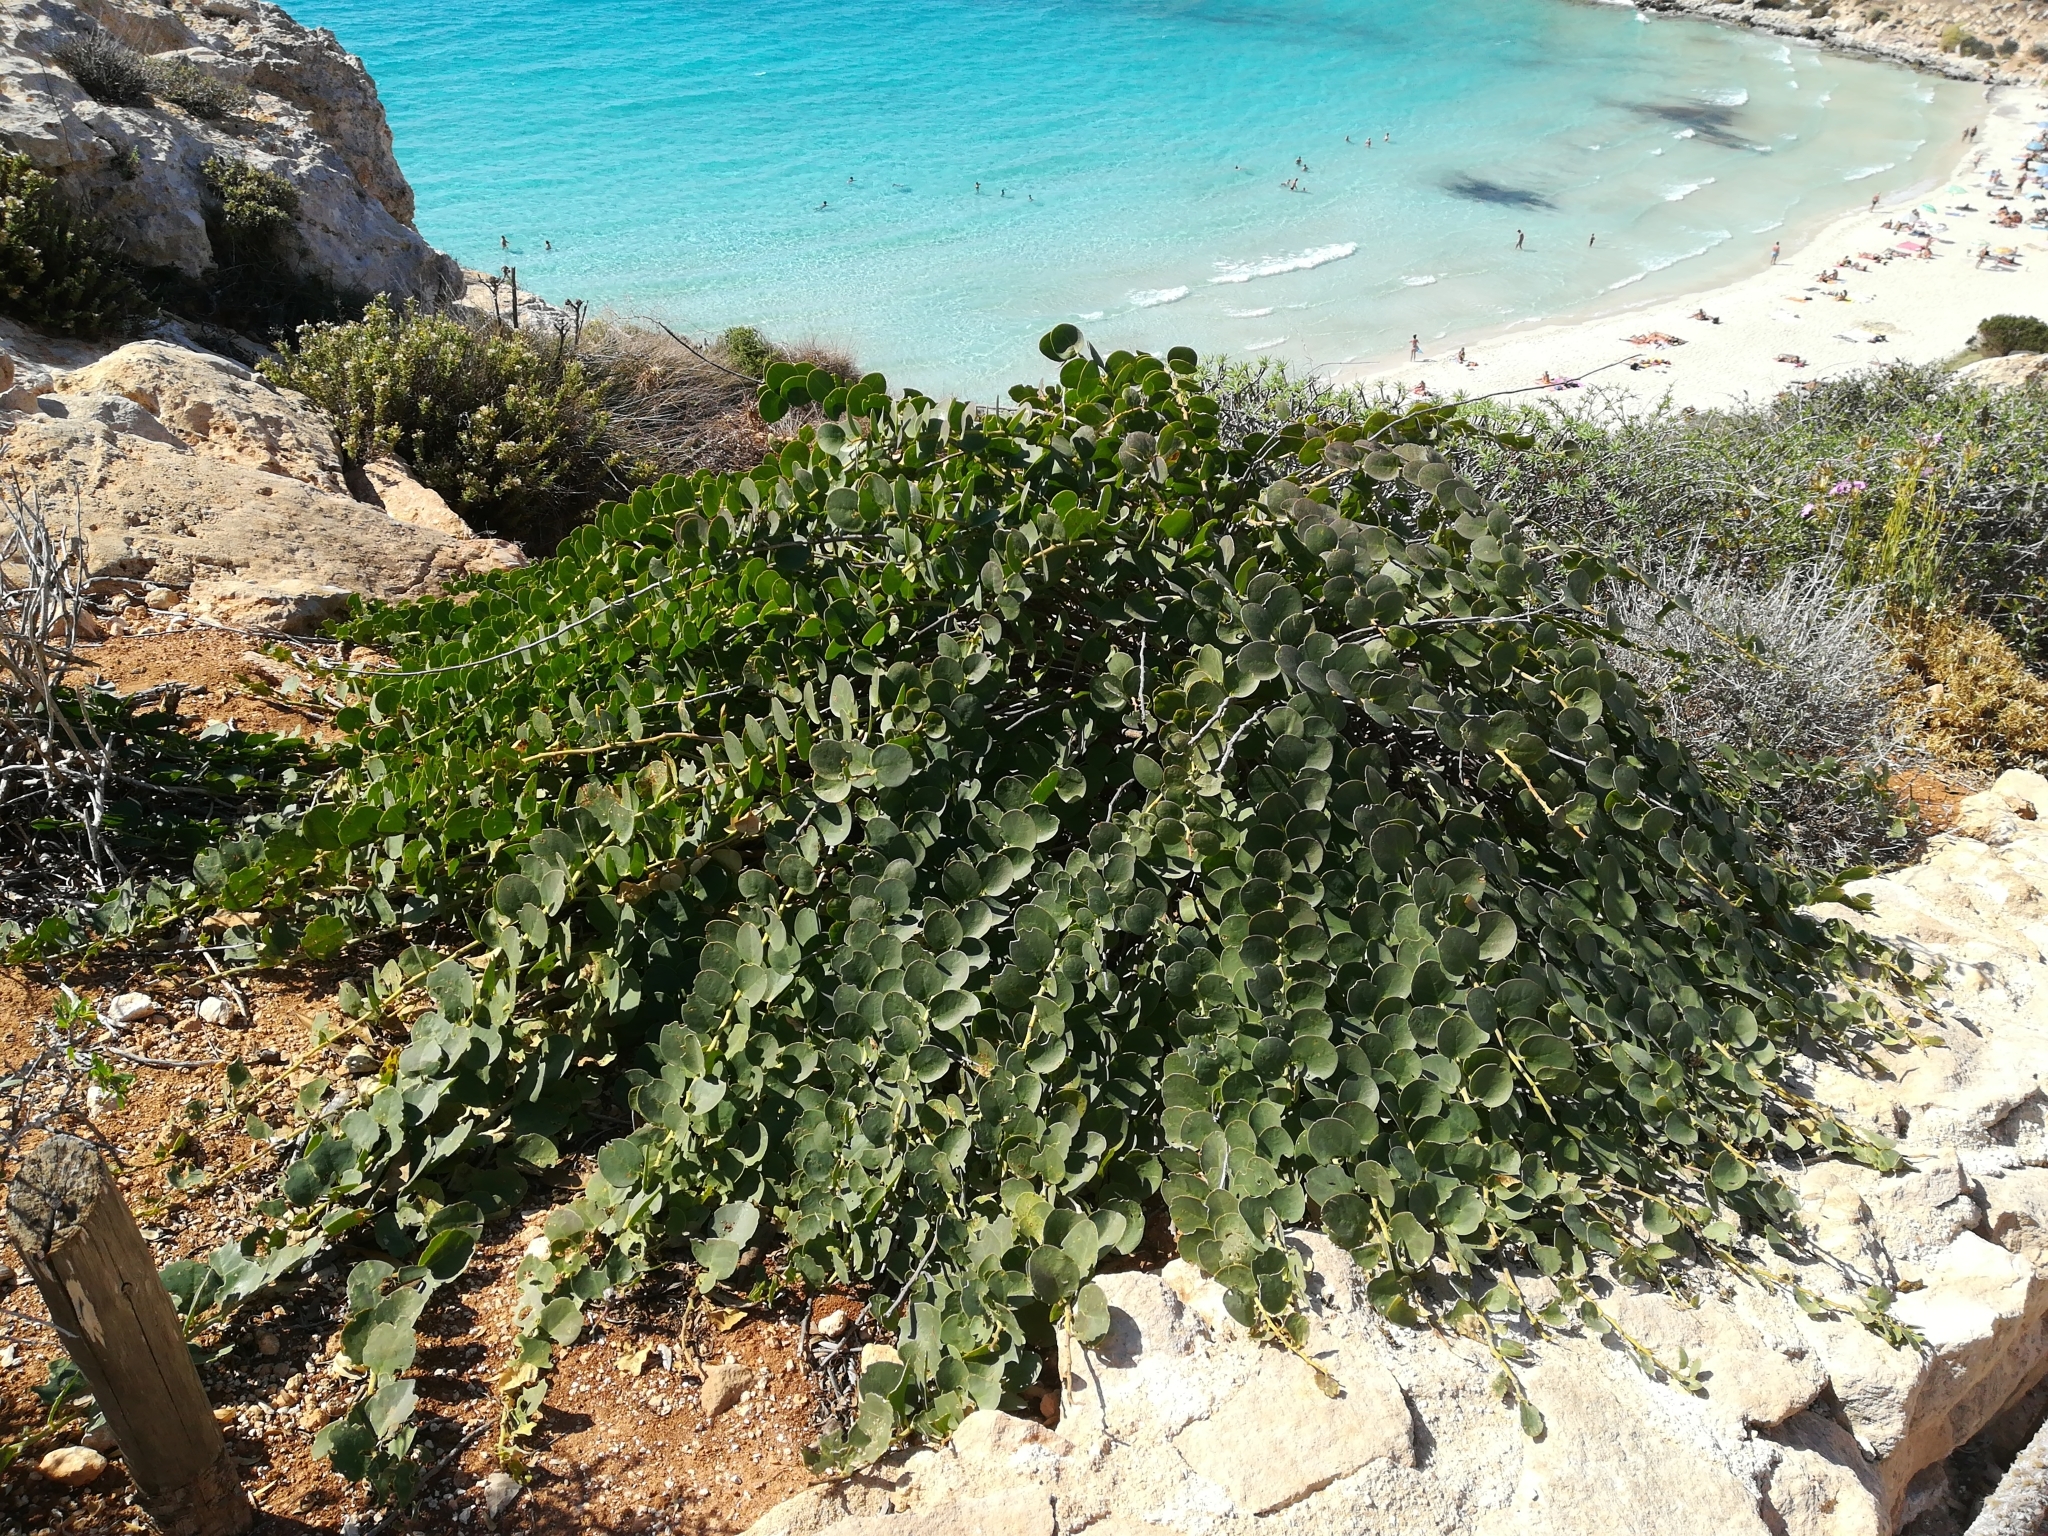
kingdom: Plantae
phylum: Tracheophyta
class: Magnoliopsida
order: Brassicales
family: Capparaceae
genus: Capparis
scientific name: Capparis spinosa
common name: Caper
